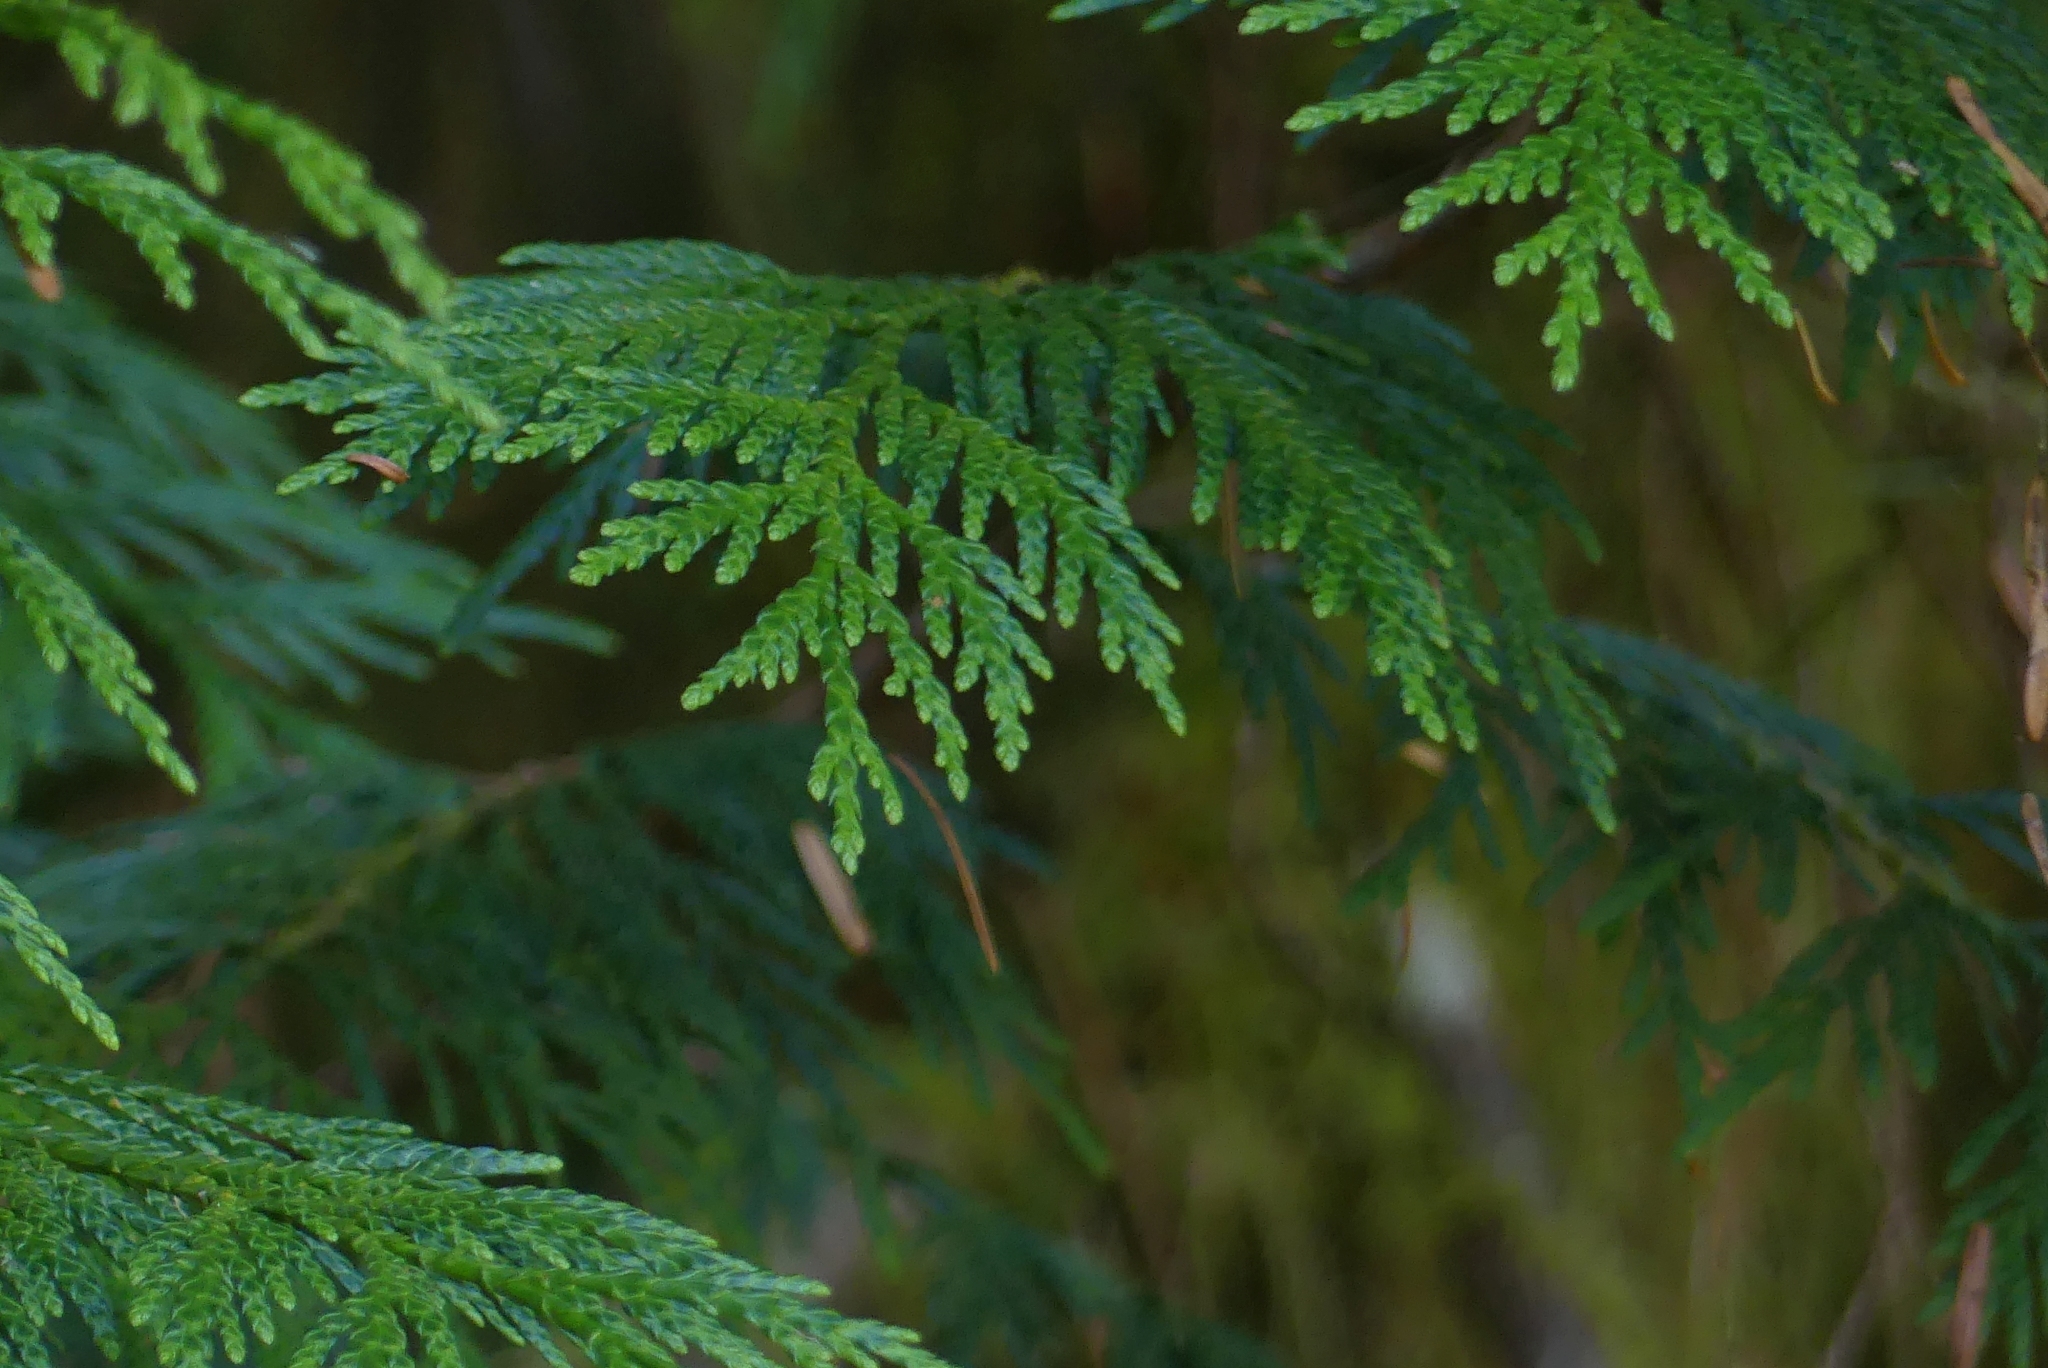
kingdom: Plantae
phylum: Tracheophyta
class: Pinopsida
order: Pinales
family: Cupressaceae
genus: Thuja
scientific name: Thuja plicata
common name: Western red-cedar
